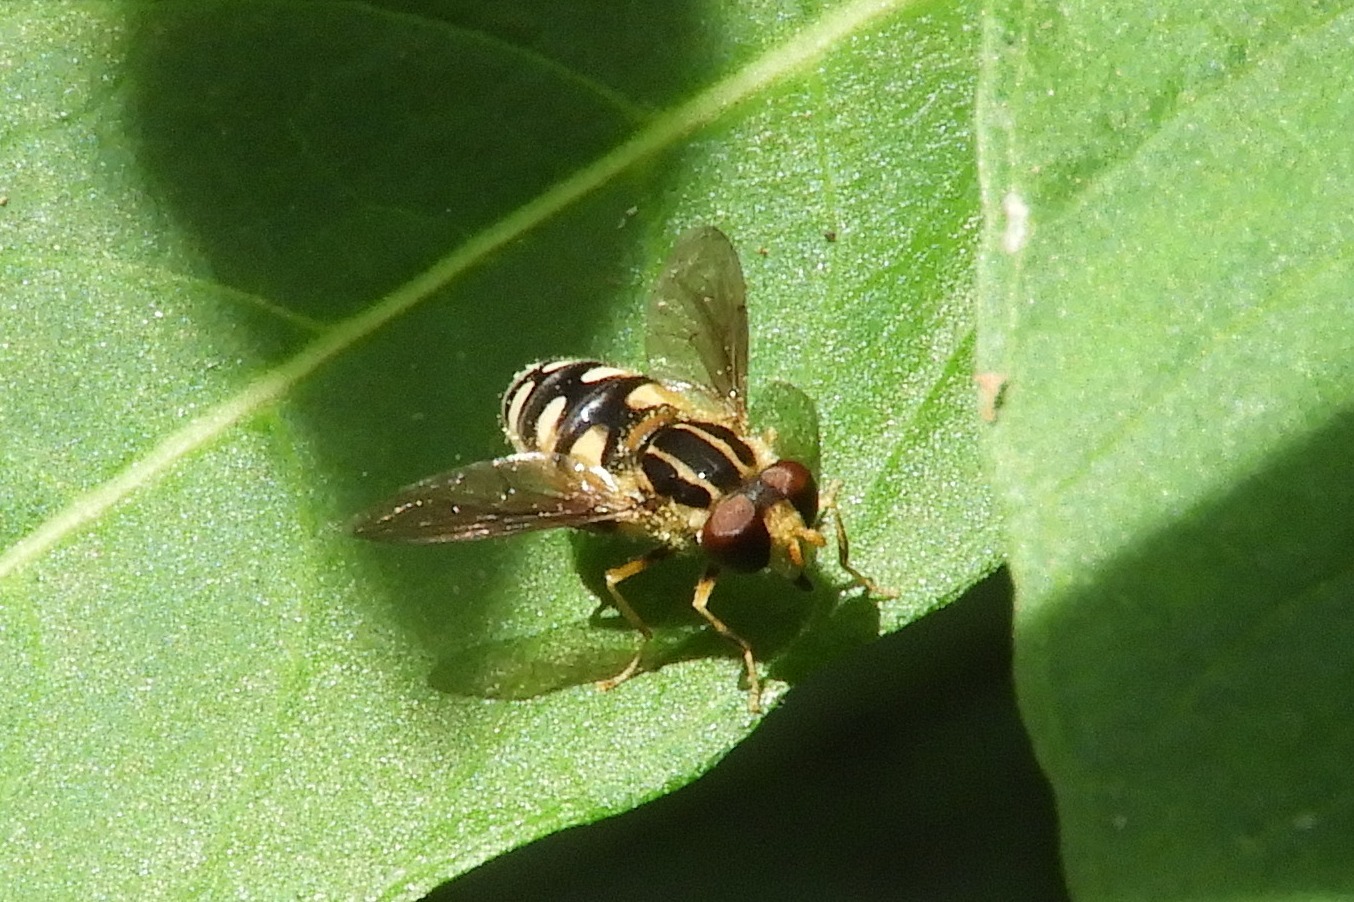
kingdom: Animalia
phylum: Arthropoda
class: Insecta
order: Diptera
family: Syrphidae
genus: Parhelophilus
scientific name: Parhelophilus flavifacies
